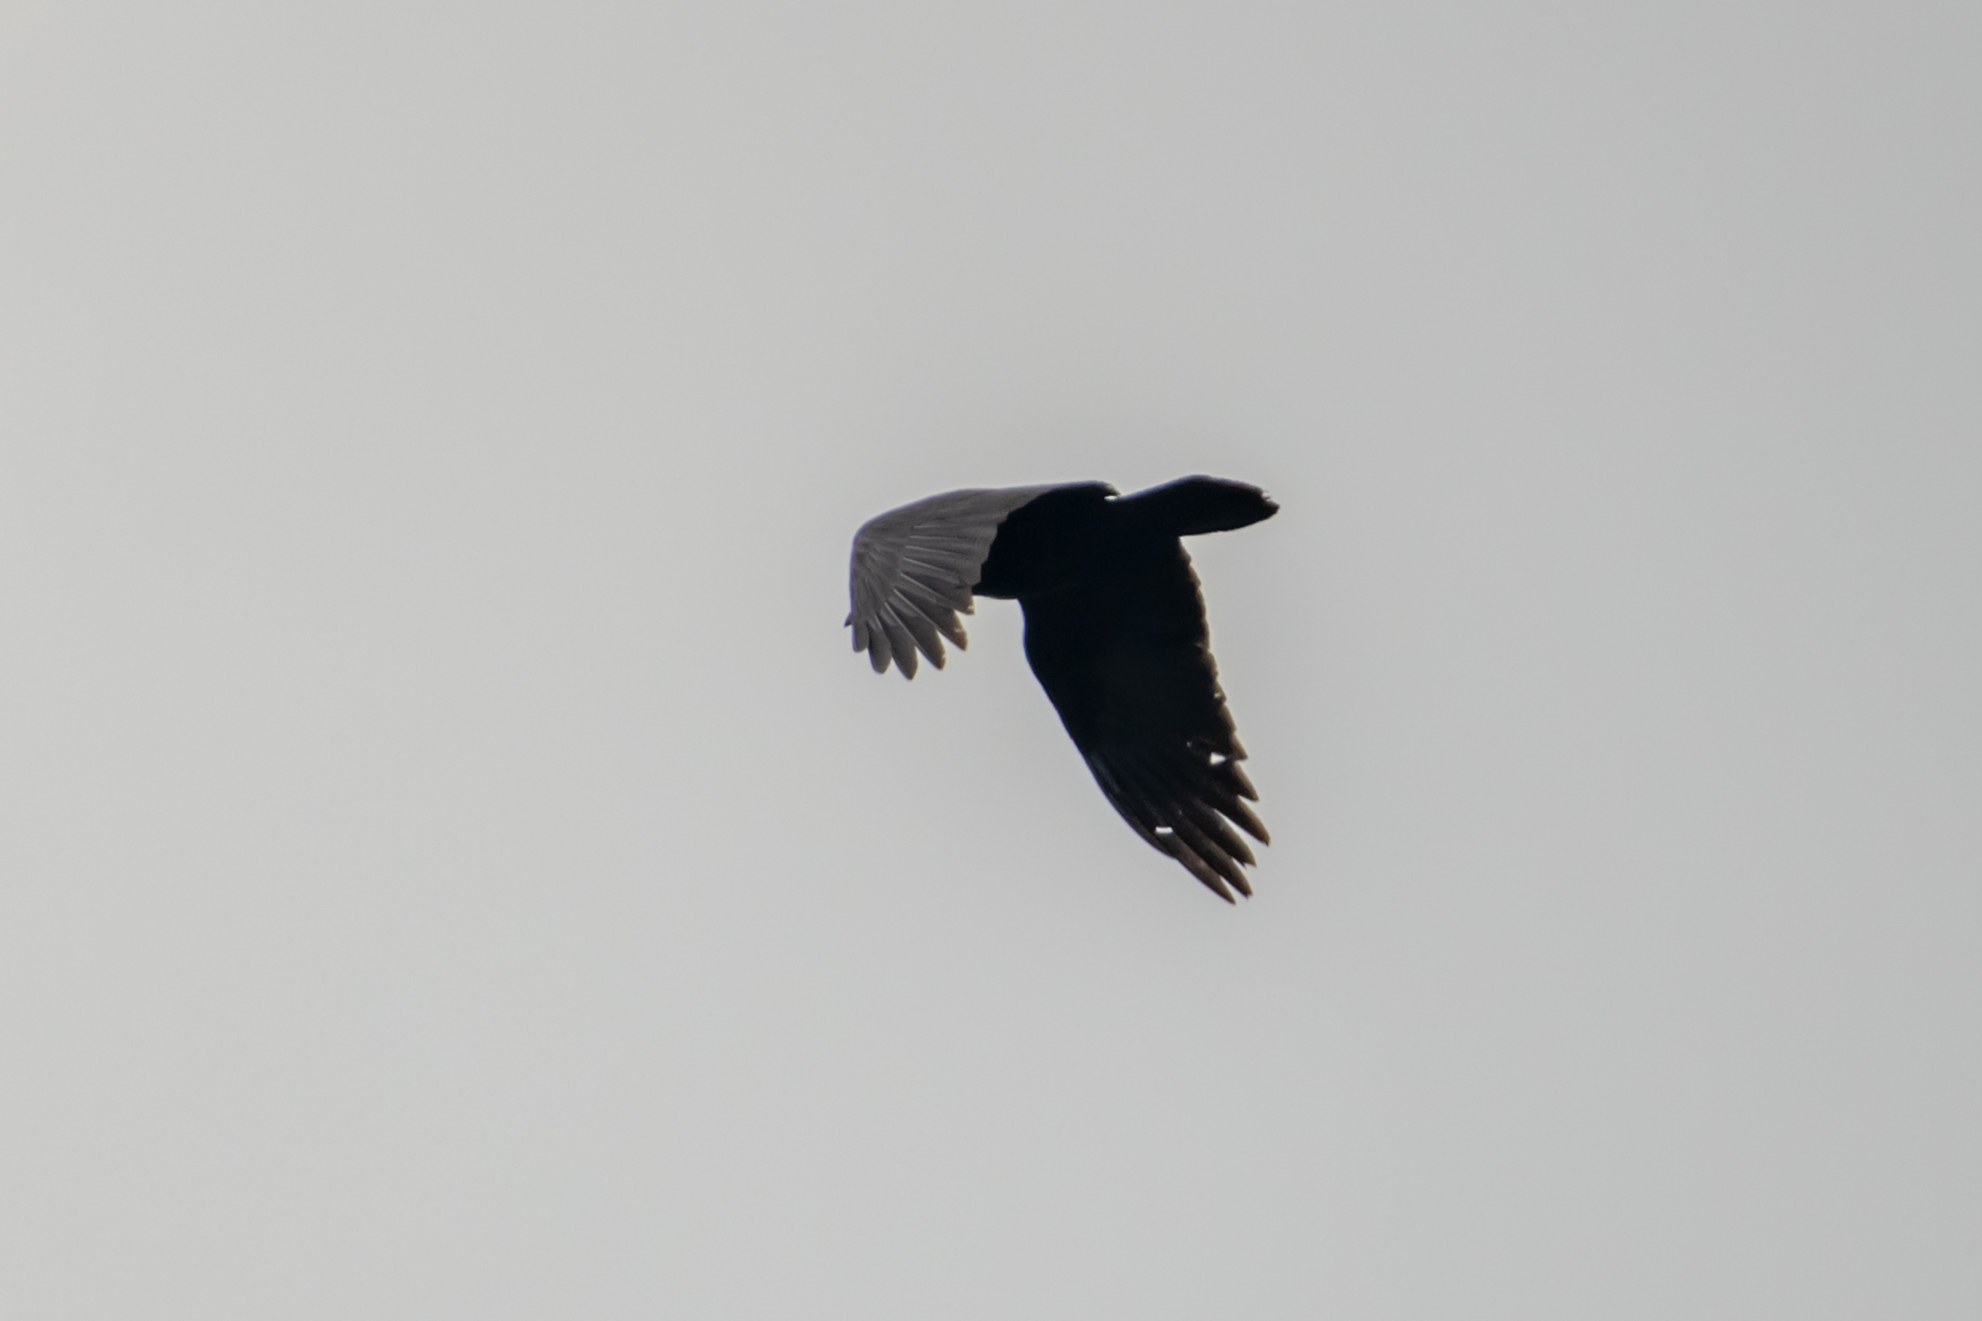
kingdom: Animalia
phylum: Chordata
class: Aves
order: Passeriformes
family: Corvidae
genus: Corvus
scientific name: Corvus corax
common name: Common raven
